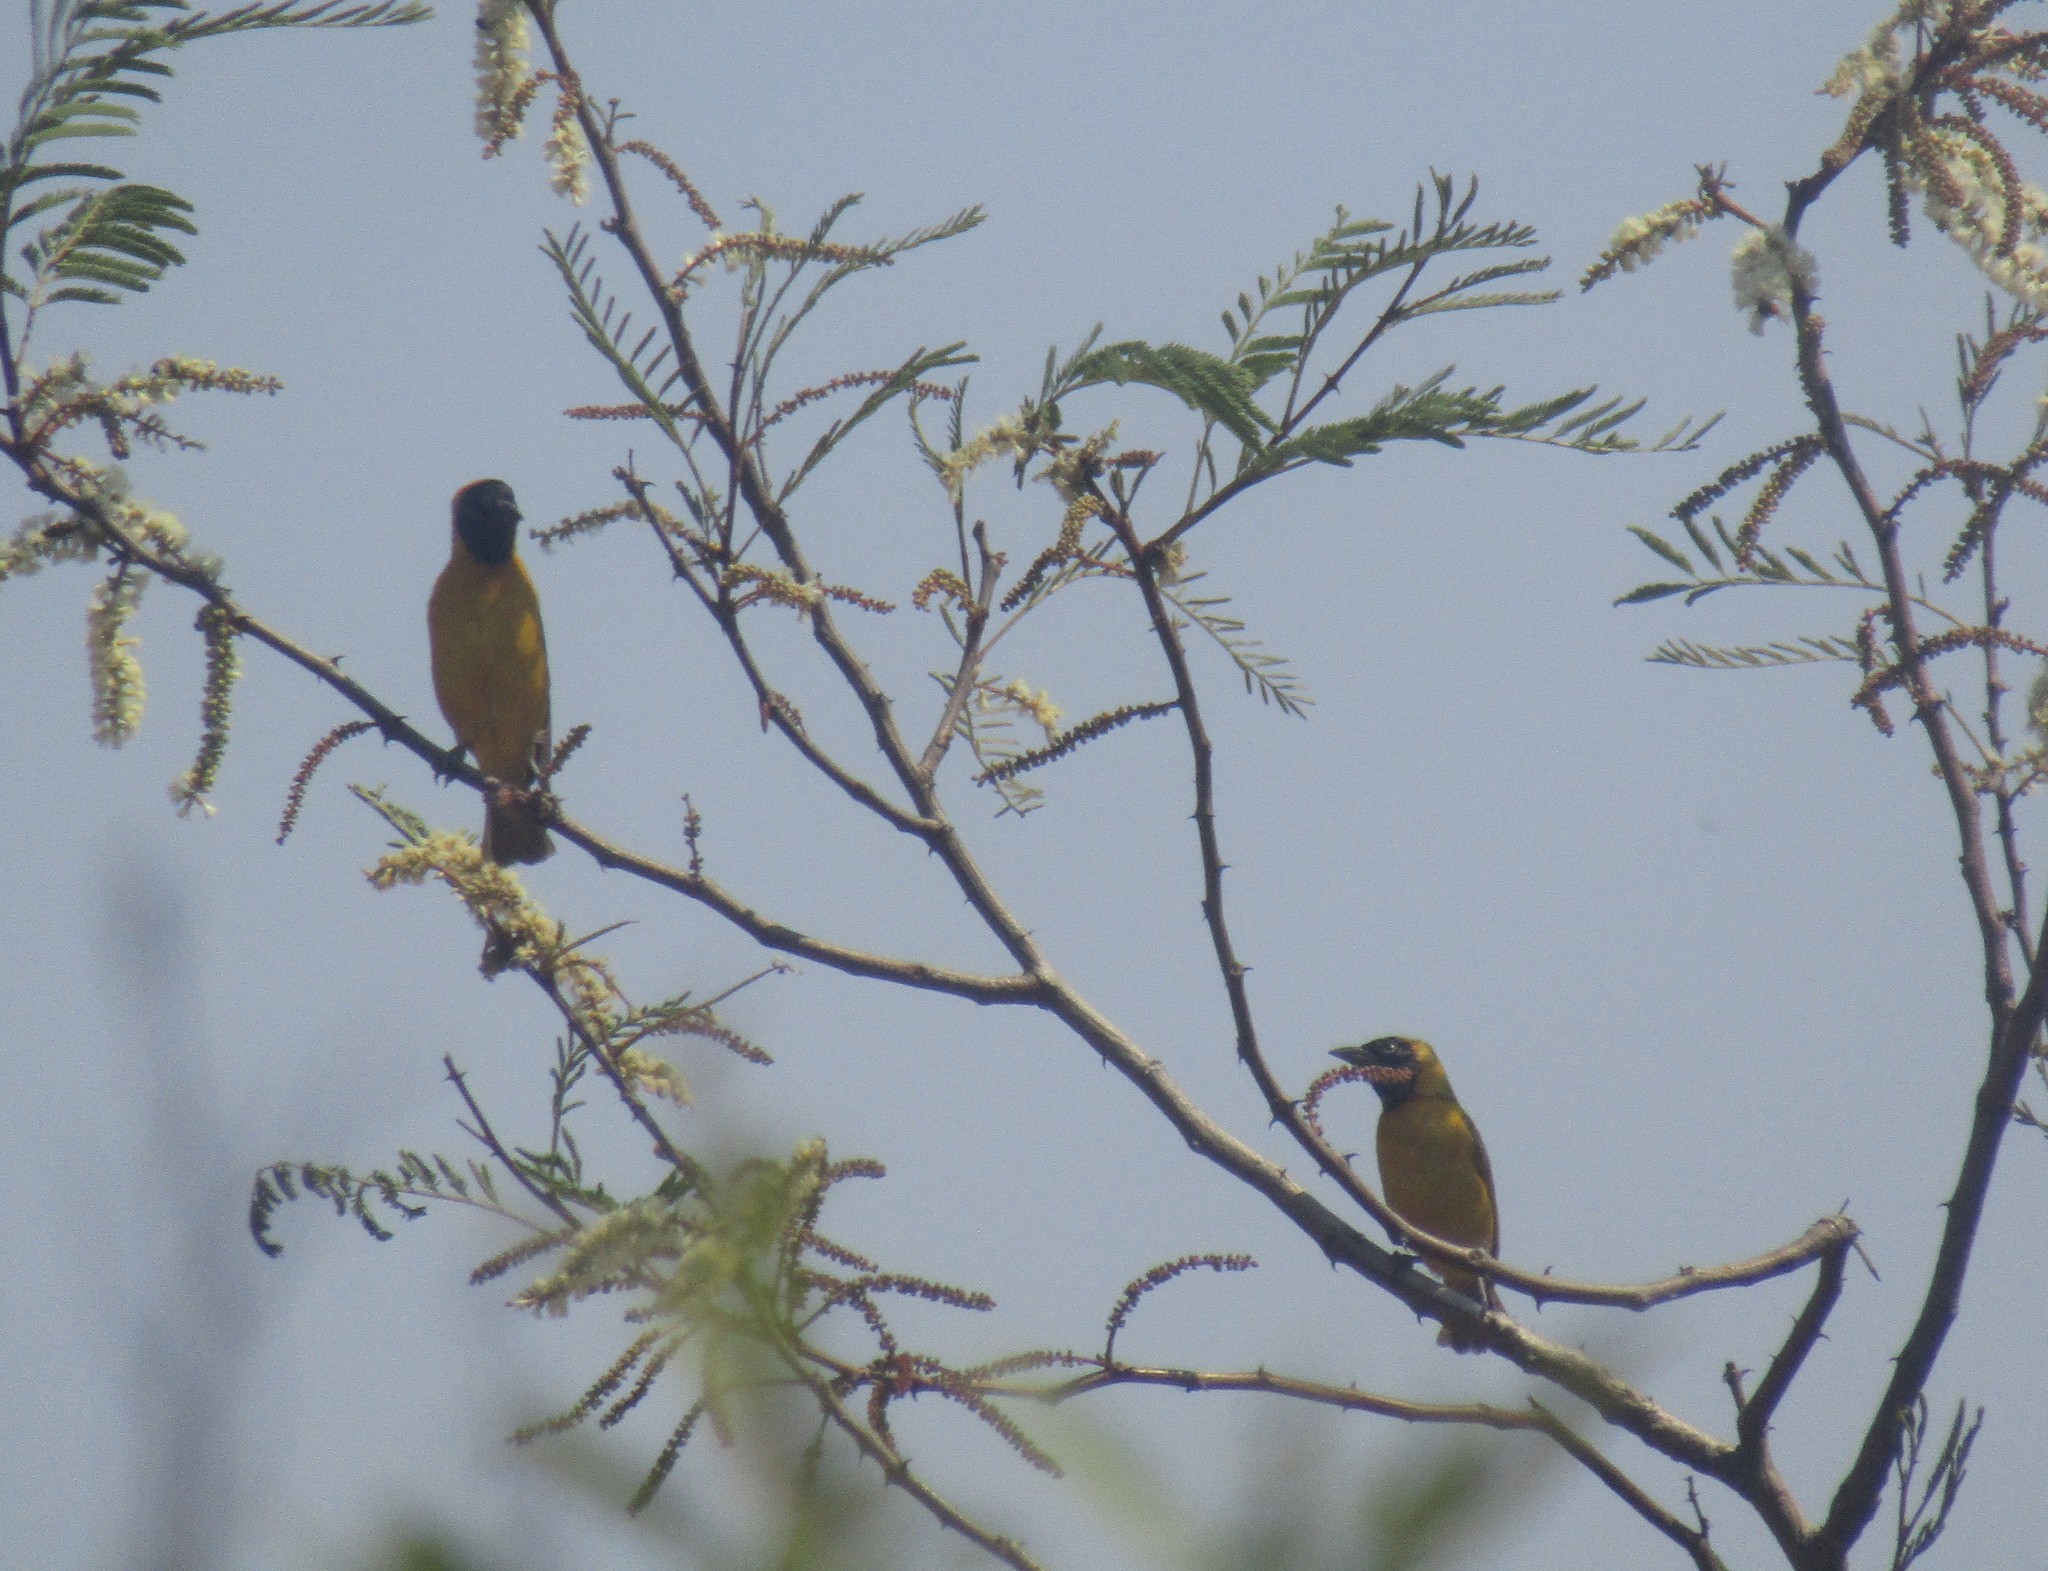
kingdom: Animalia
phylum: Chordata
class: Aves
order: Passeriformes
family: Ploceidae
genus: Ploceus
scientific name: Ploceus intermedius
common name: Lesser masked weaver
